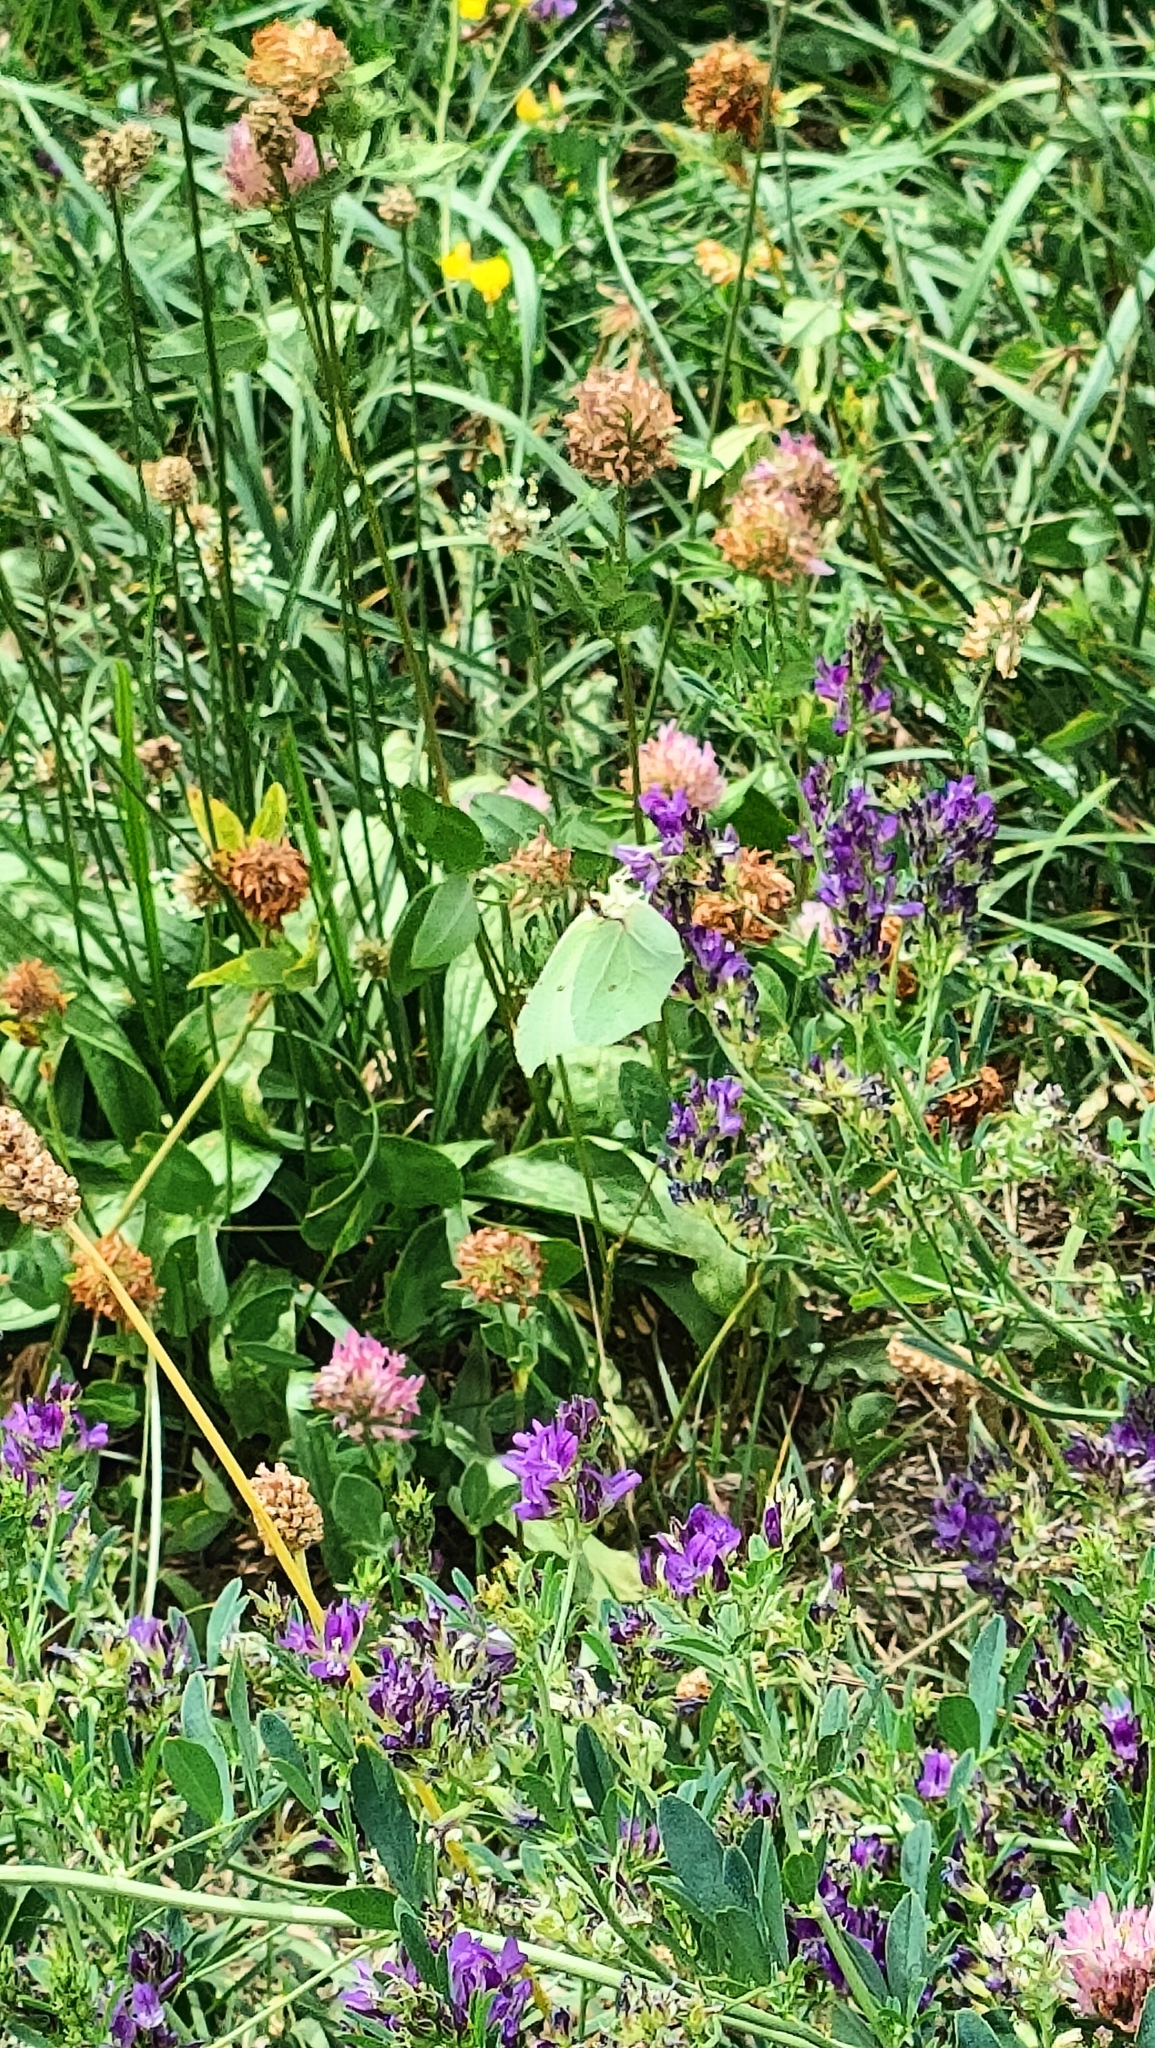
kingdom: Animalia
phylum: Arthropoda
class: Insecta
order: Lepidoptera
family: Pieridae
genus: Gonepteryx
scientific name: Gonepteryx rhamni
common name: Brimstone
